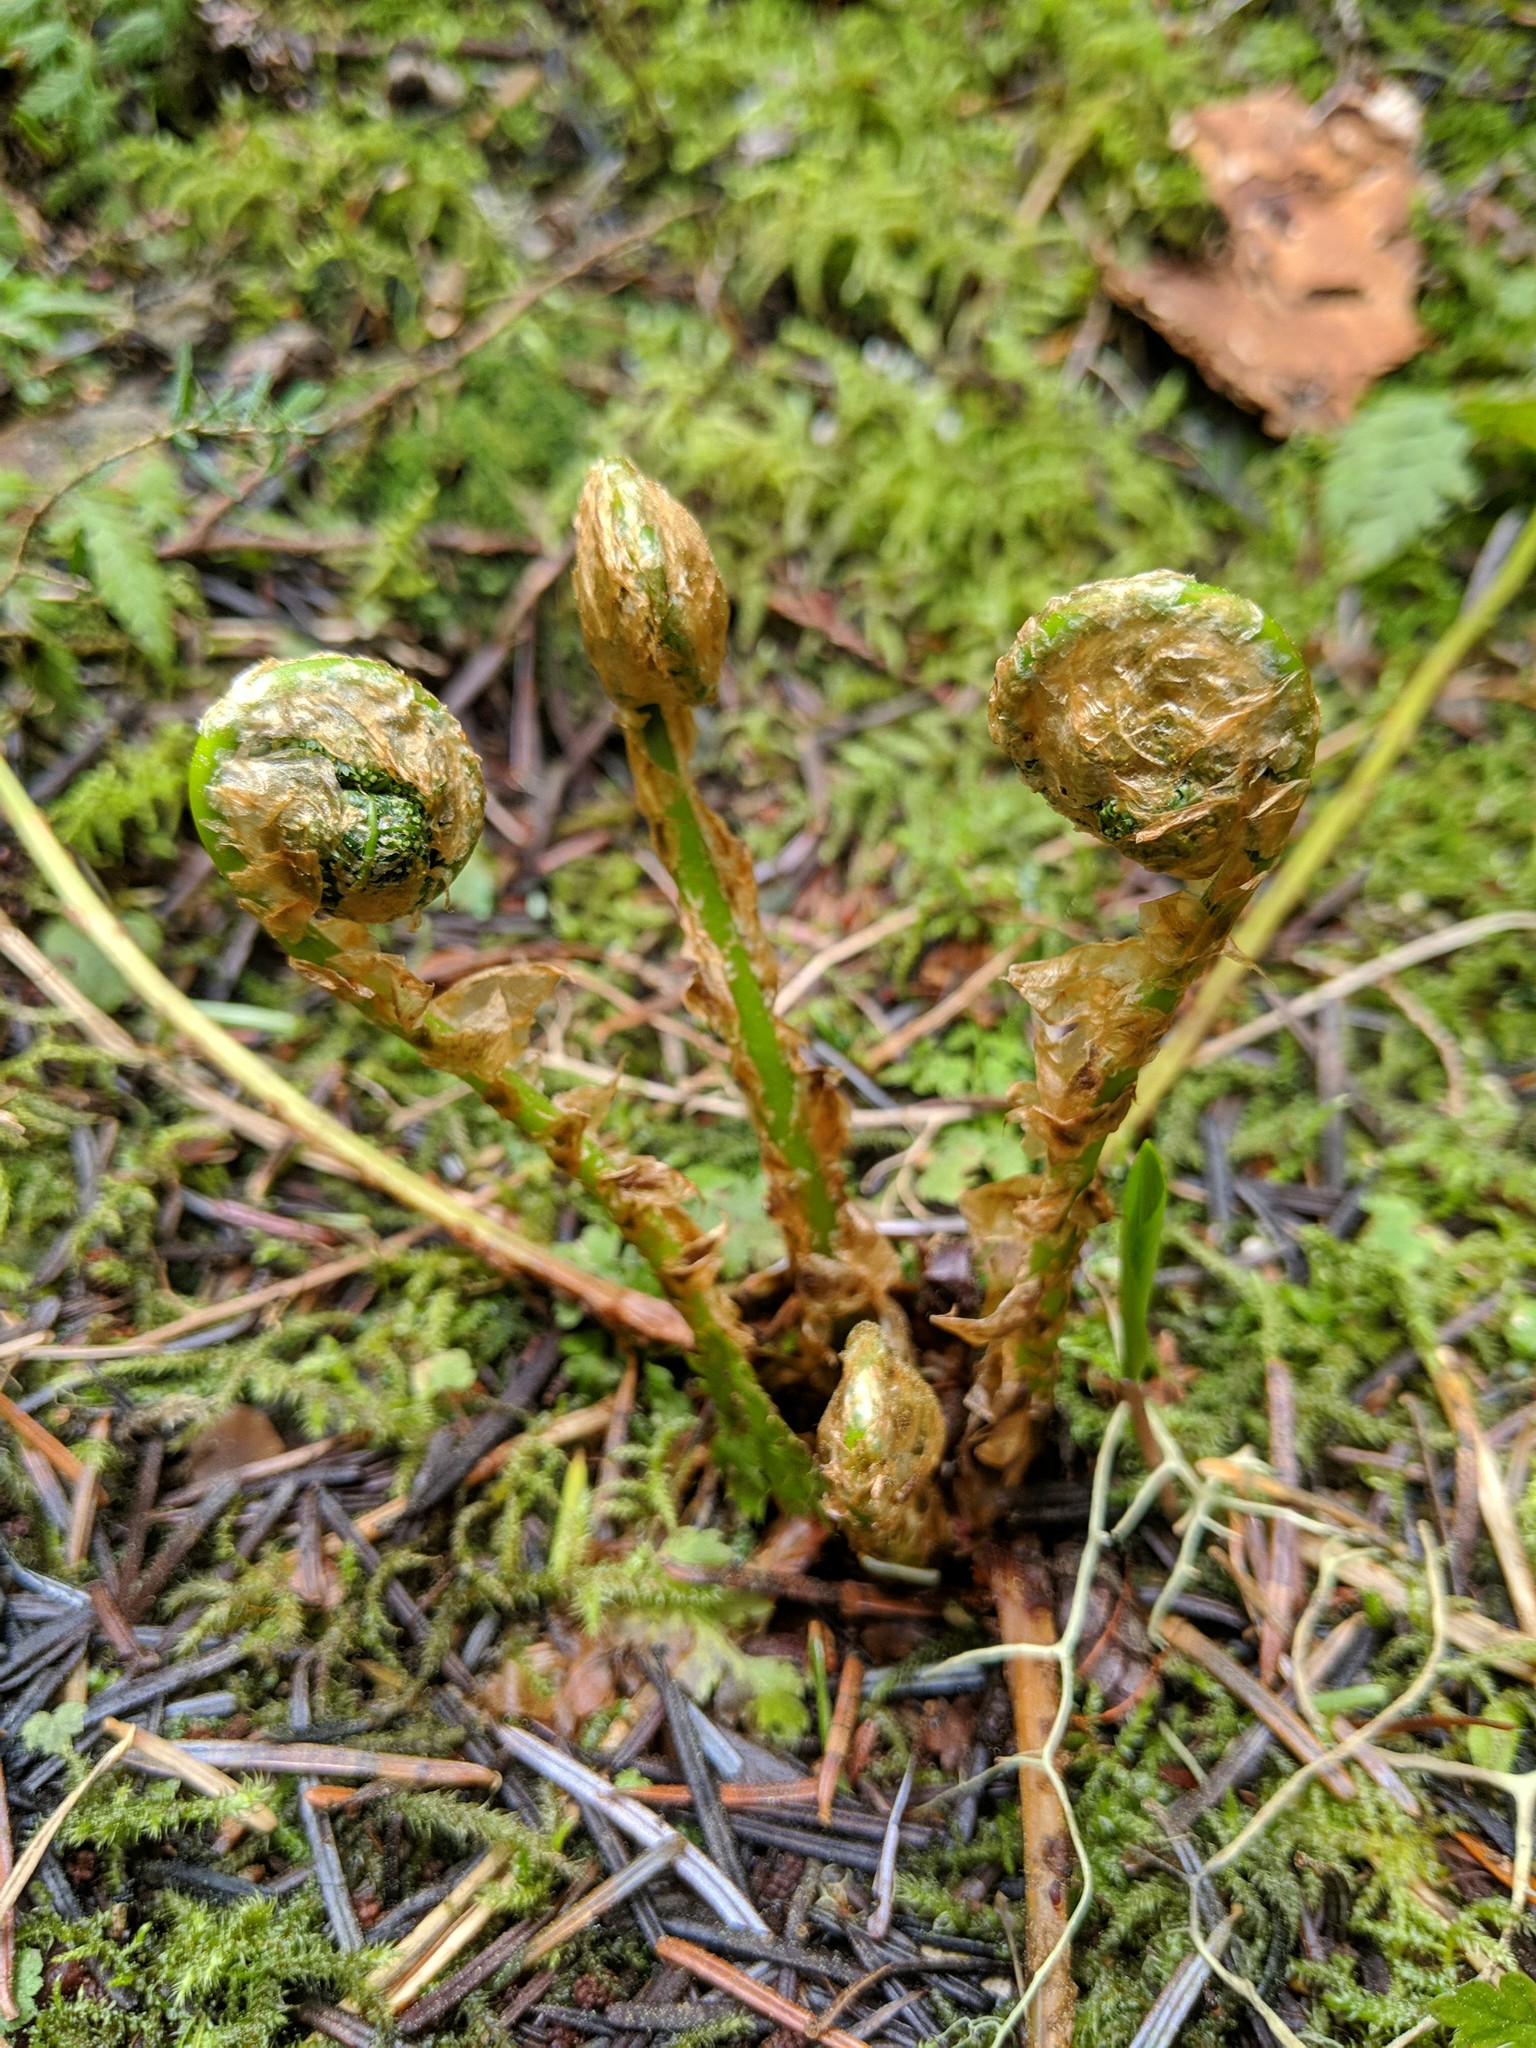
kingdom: Plantae
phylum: Tracheophyta
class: Polypodiopsida
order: Polypodiales
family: Dryopteridaceae
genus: Dryopteris
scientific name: Dryopteris expansa
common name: Northern buckler fern
